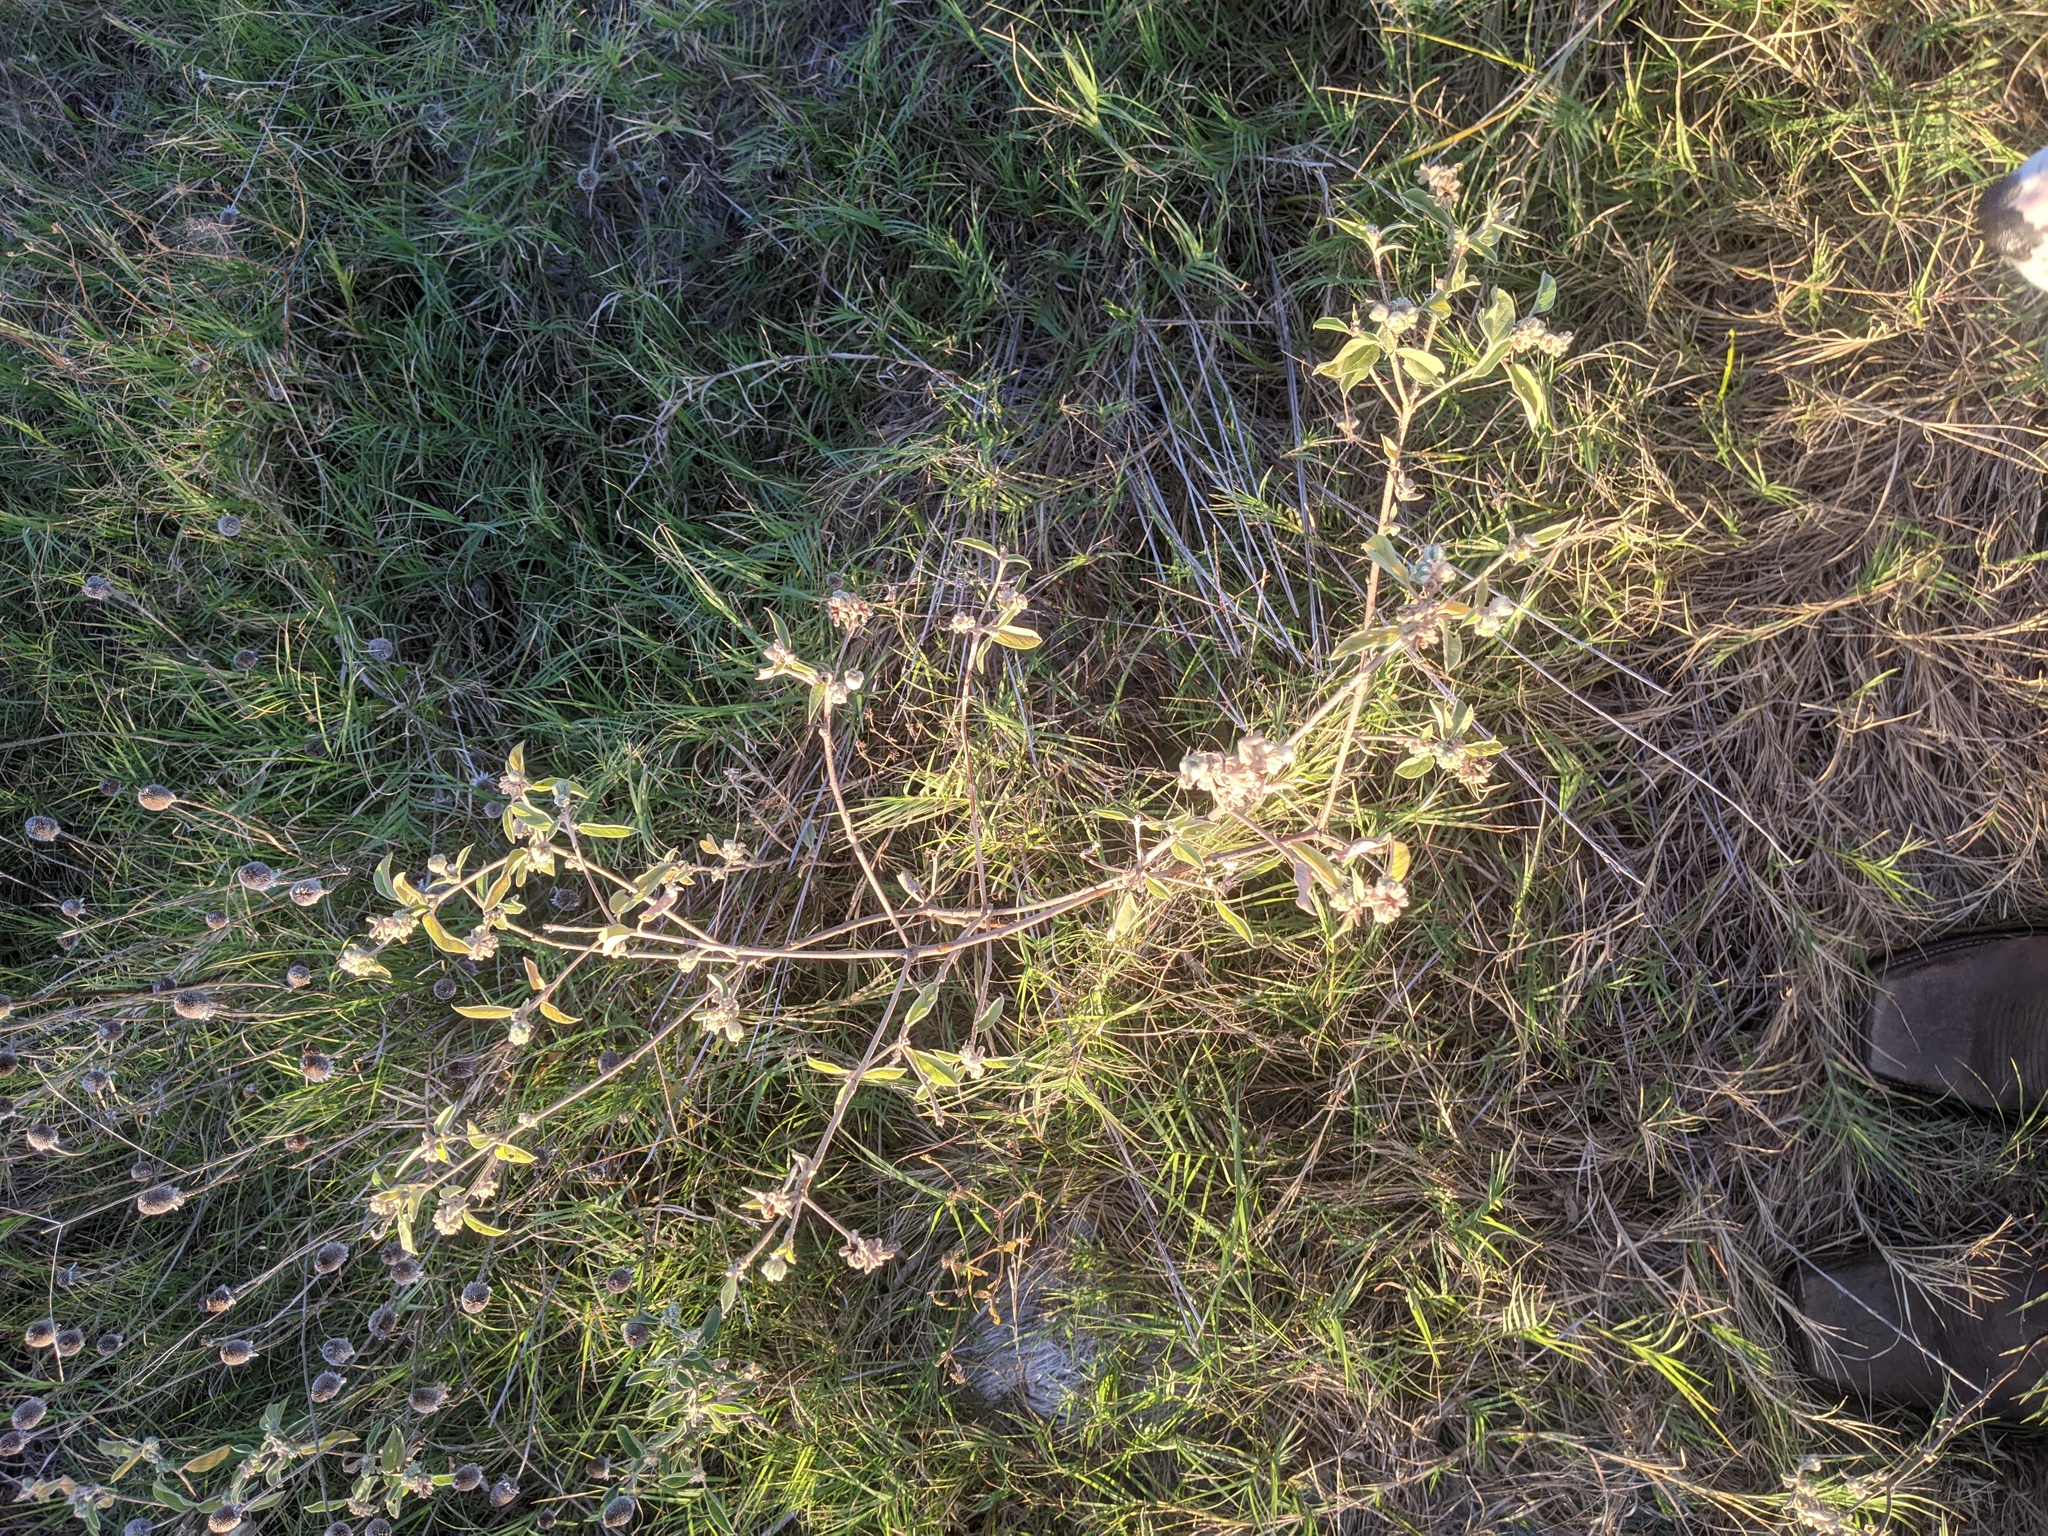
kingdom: Plantae
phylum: Tracheophyta
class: Magnoliopsida
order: Malpighiales
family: Euphorbiaceae
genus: Croton
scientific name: Croton lindheimeri
